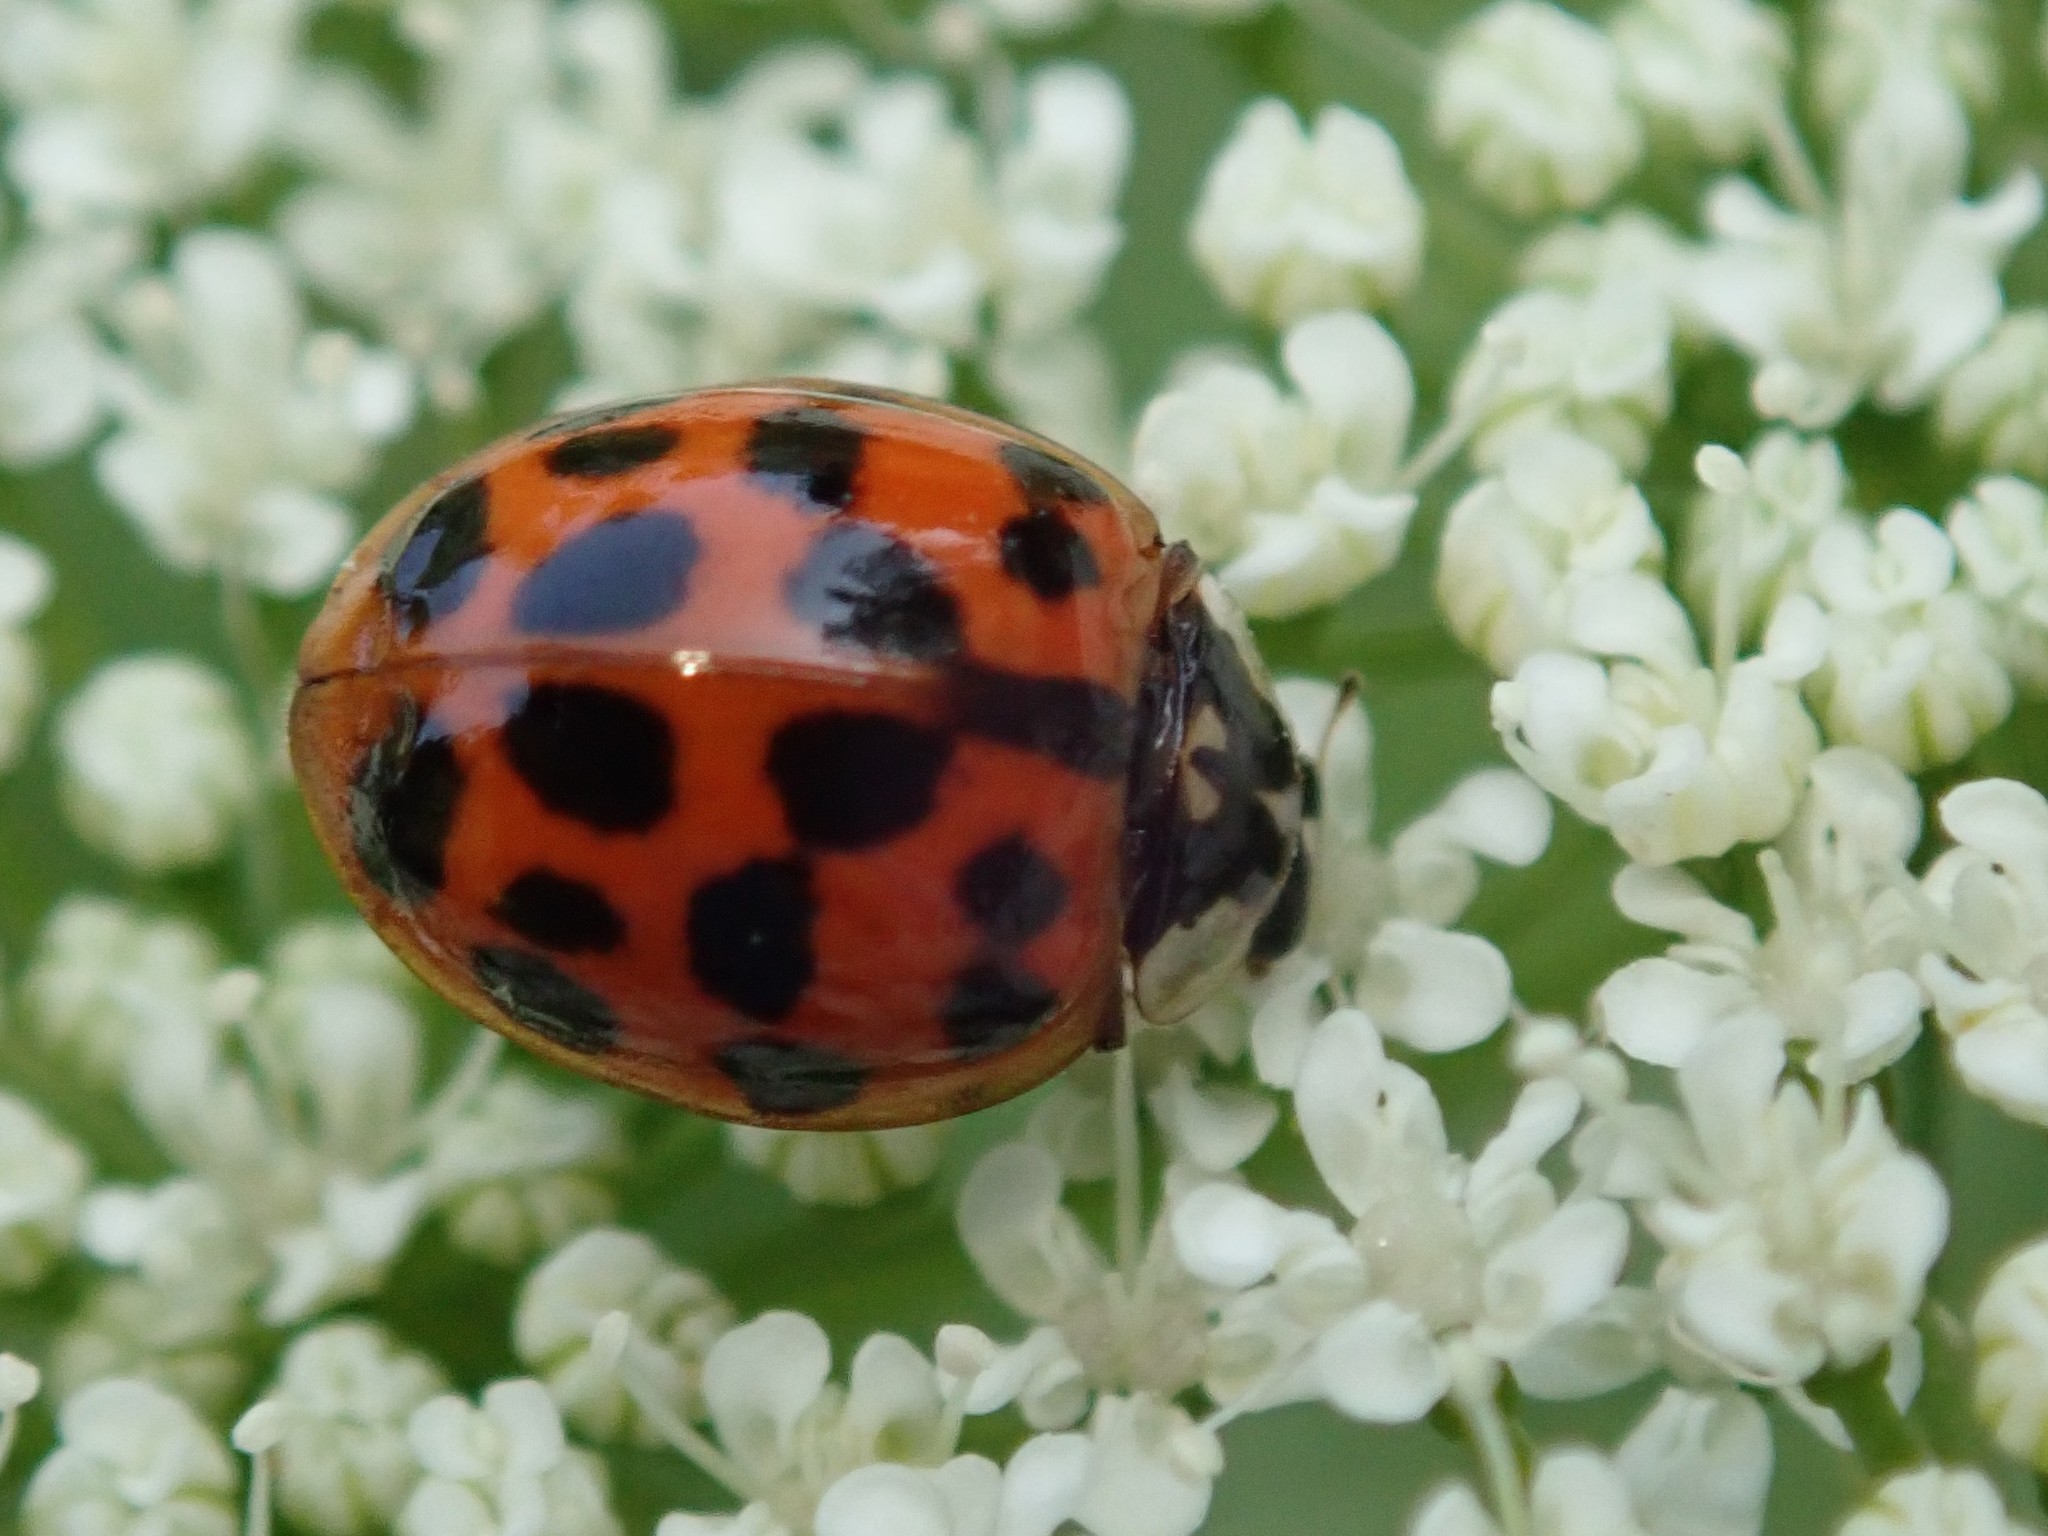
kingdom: Animalia
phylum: Arthropoda
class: Insecta
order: Coleoptera
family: Coccinellidae
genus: Harmonia
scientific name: Harmonia axyridis
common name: Harlequin ladybird
